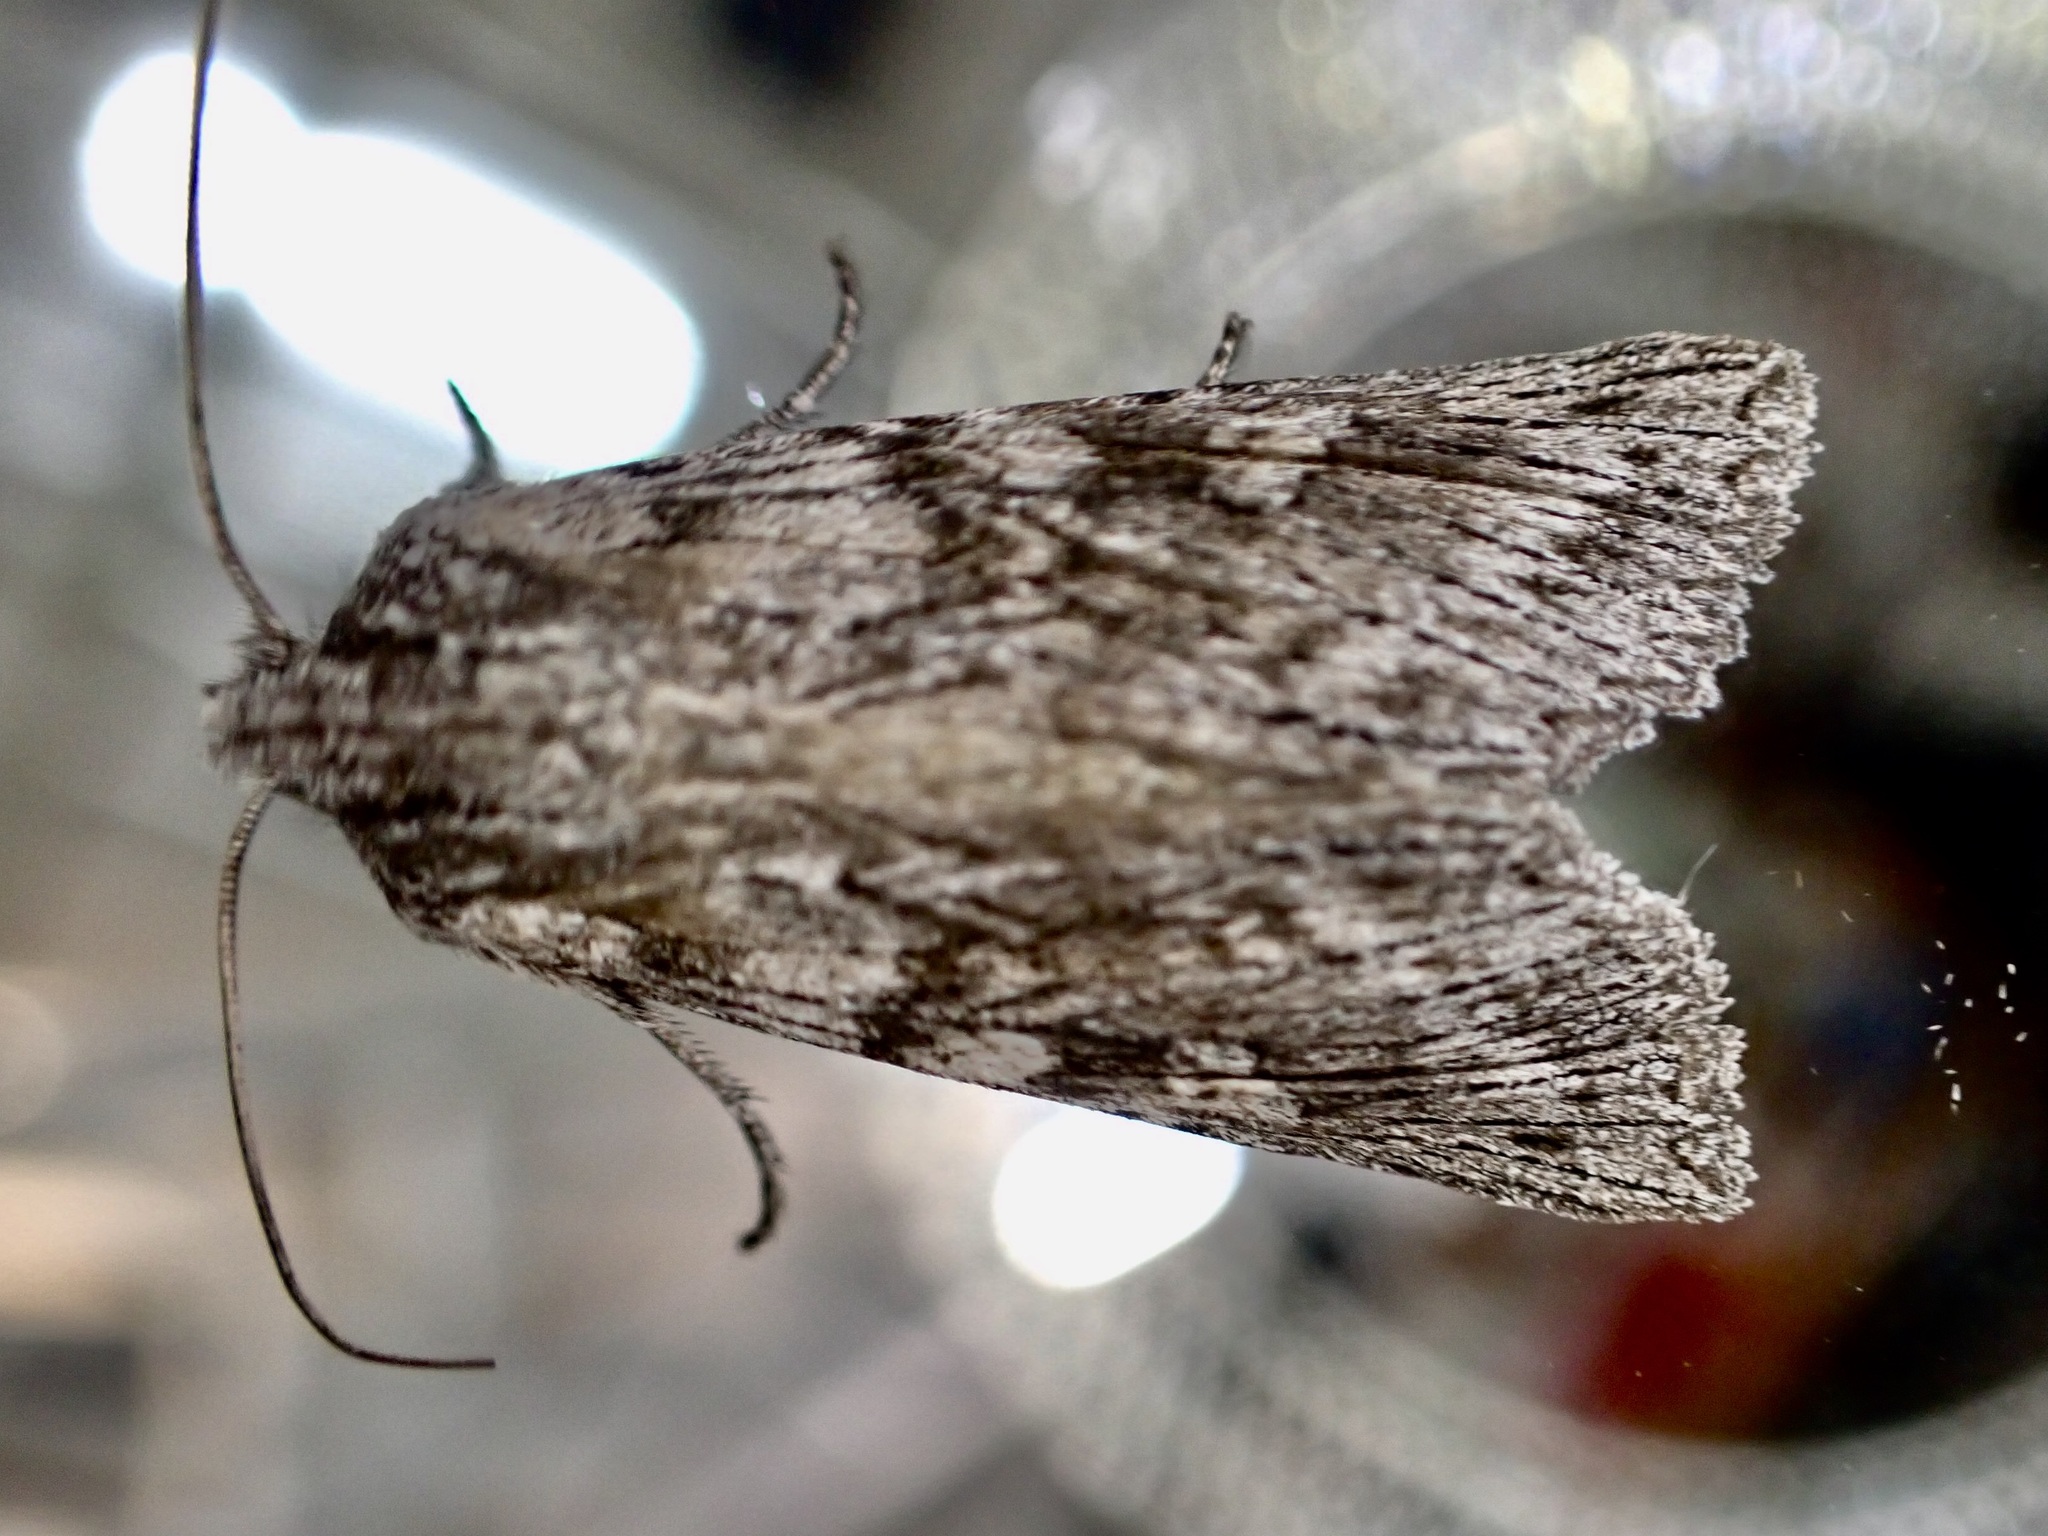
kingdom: Animalia
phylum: Arthropoda
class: Insecta
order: Lepidoptera
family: Noctuidae
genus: Physetica
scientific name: Physetica phricias
